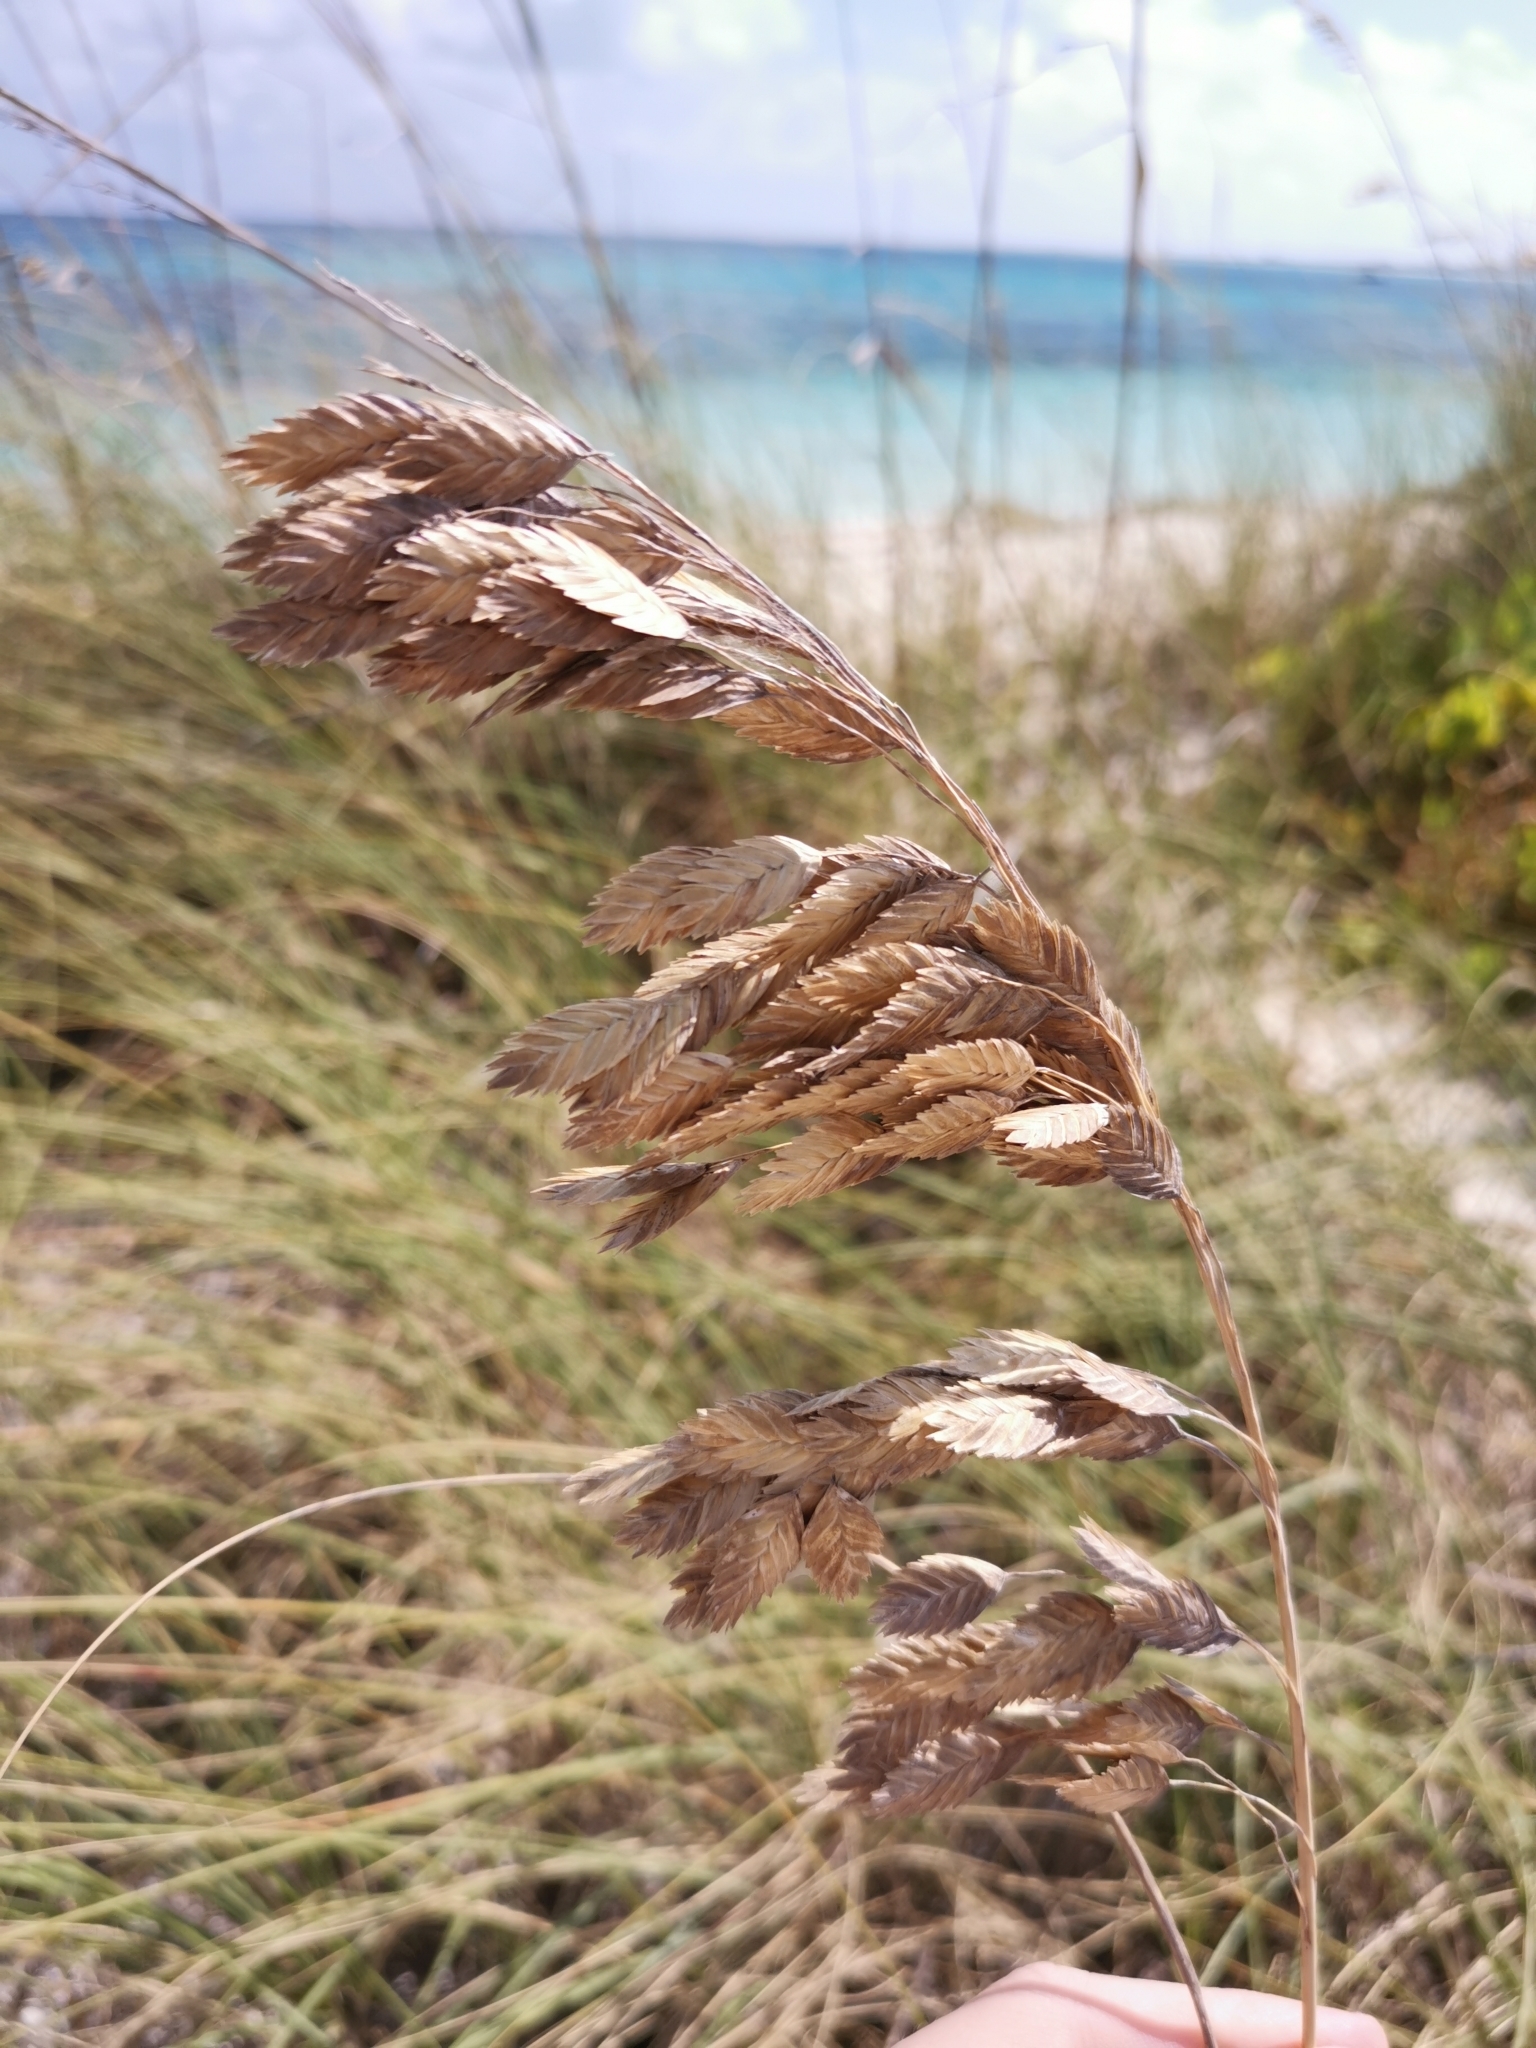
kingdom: Plantae
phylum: Tracheophyta
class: Liliopsida
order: Poales
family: Poaceae
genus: Uniola
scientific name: Uniola paniculata
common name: Seaside-oats
